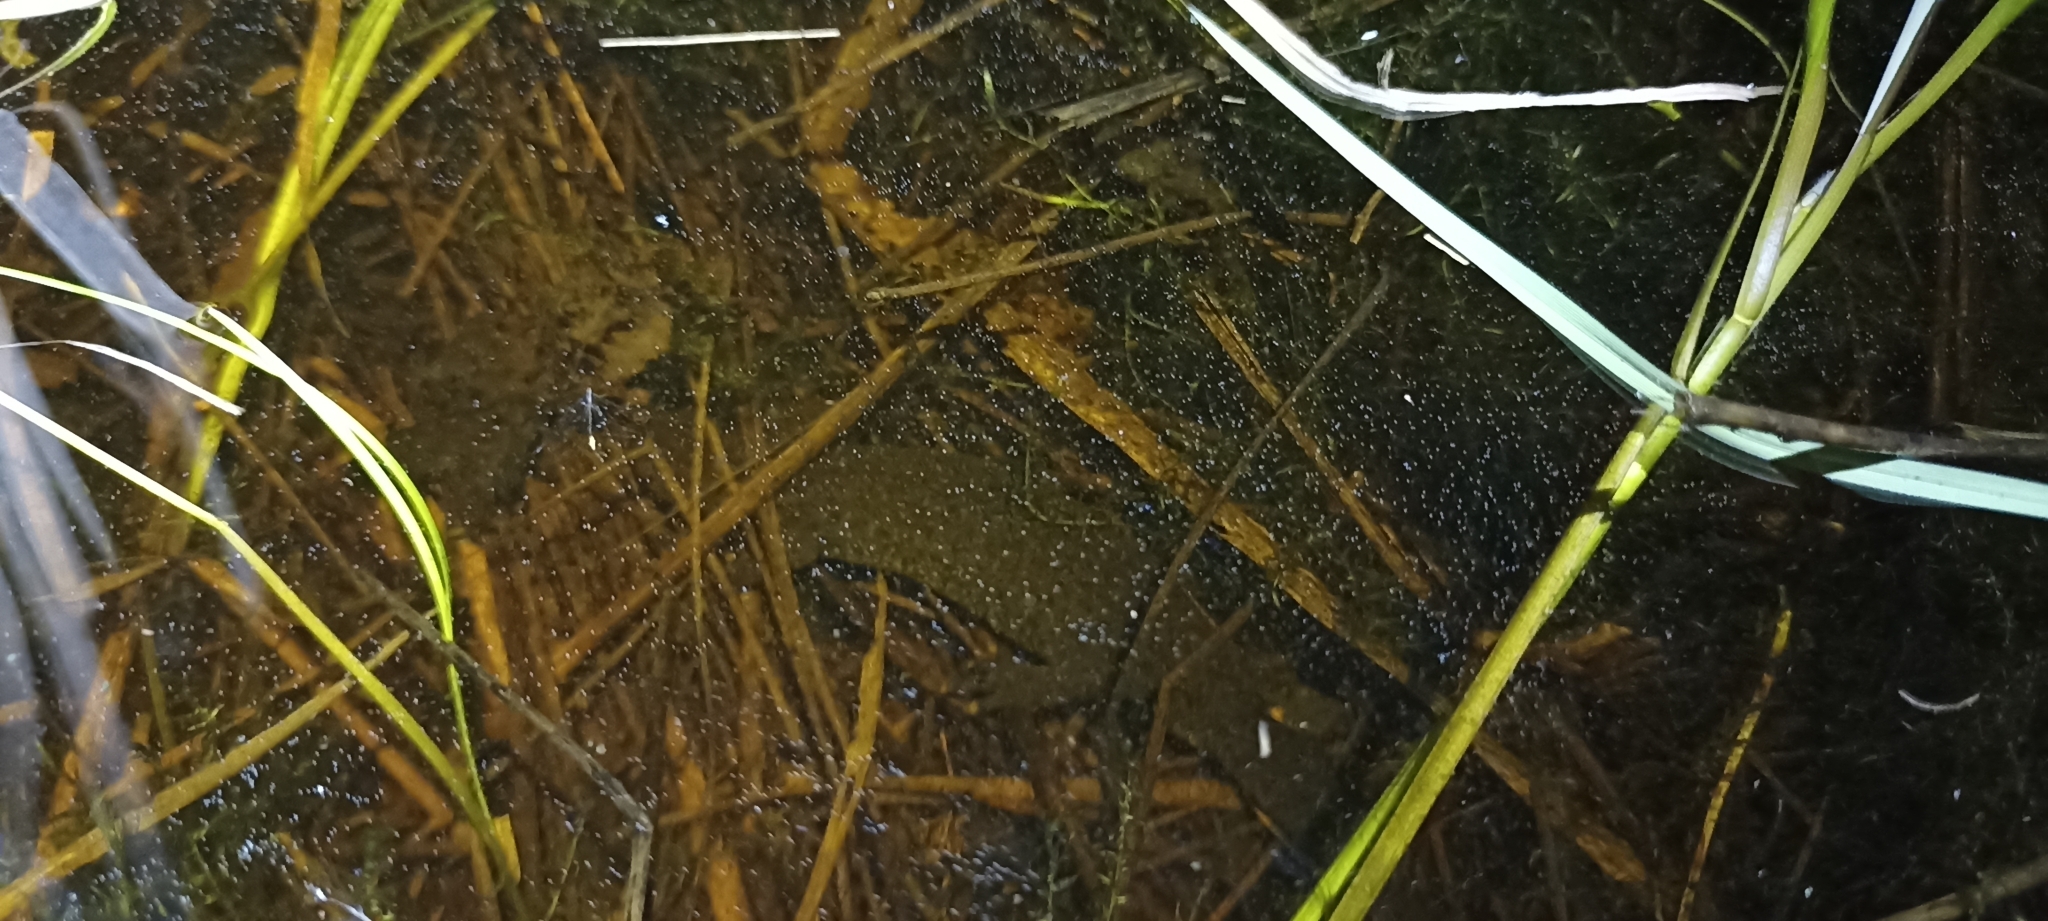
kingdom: Animalia
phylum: Chordata
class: Amphibia
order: Caudata
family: Salamandridae
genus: Triturus
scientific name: Triturus cristatus
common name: Crested newt
